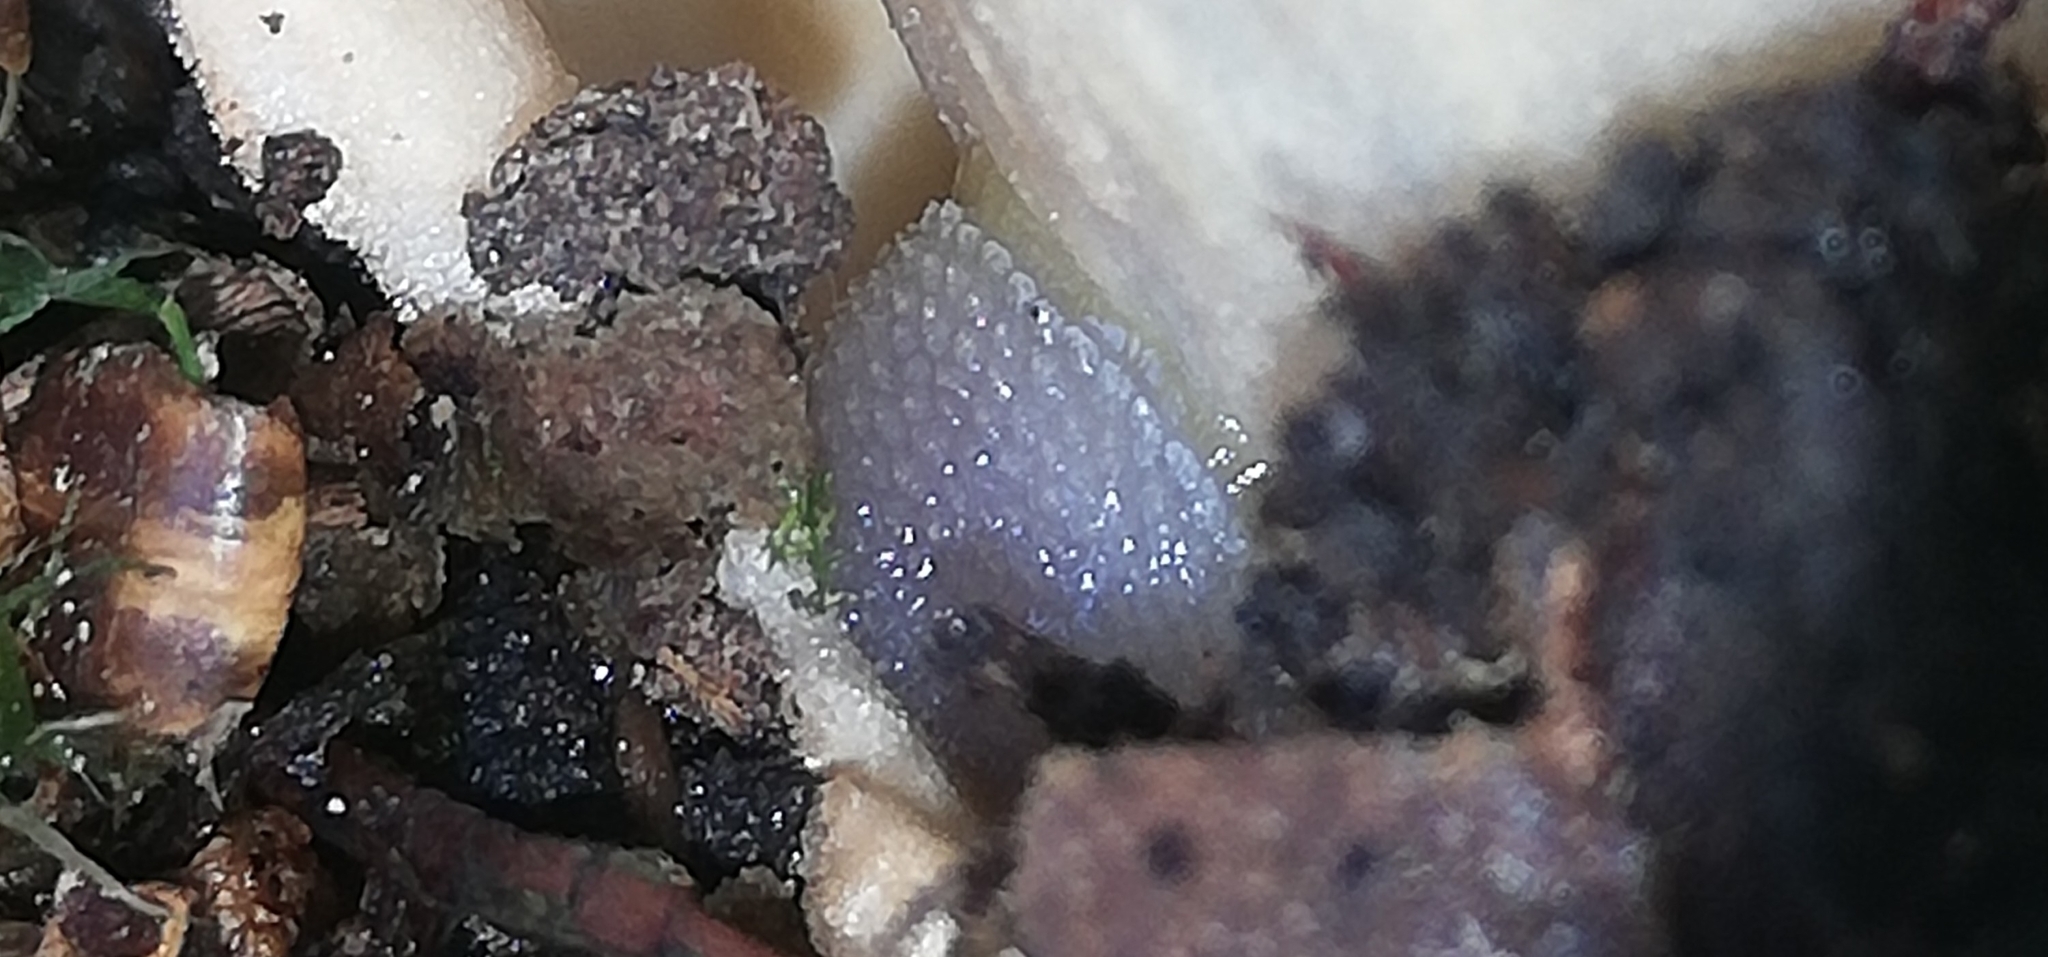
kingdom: Animalia
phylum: Mollusca
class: Gastropoda
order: Stylommatophora
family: Arionidae
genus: Arion
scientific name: Arion intermedius
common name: Hedgehog slug
